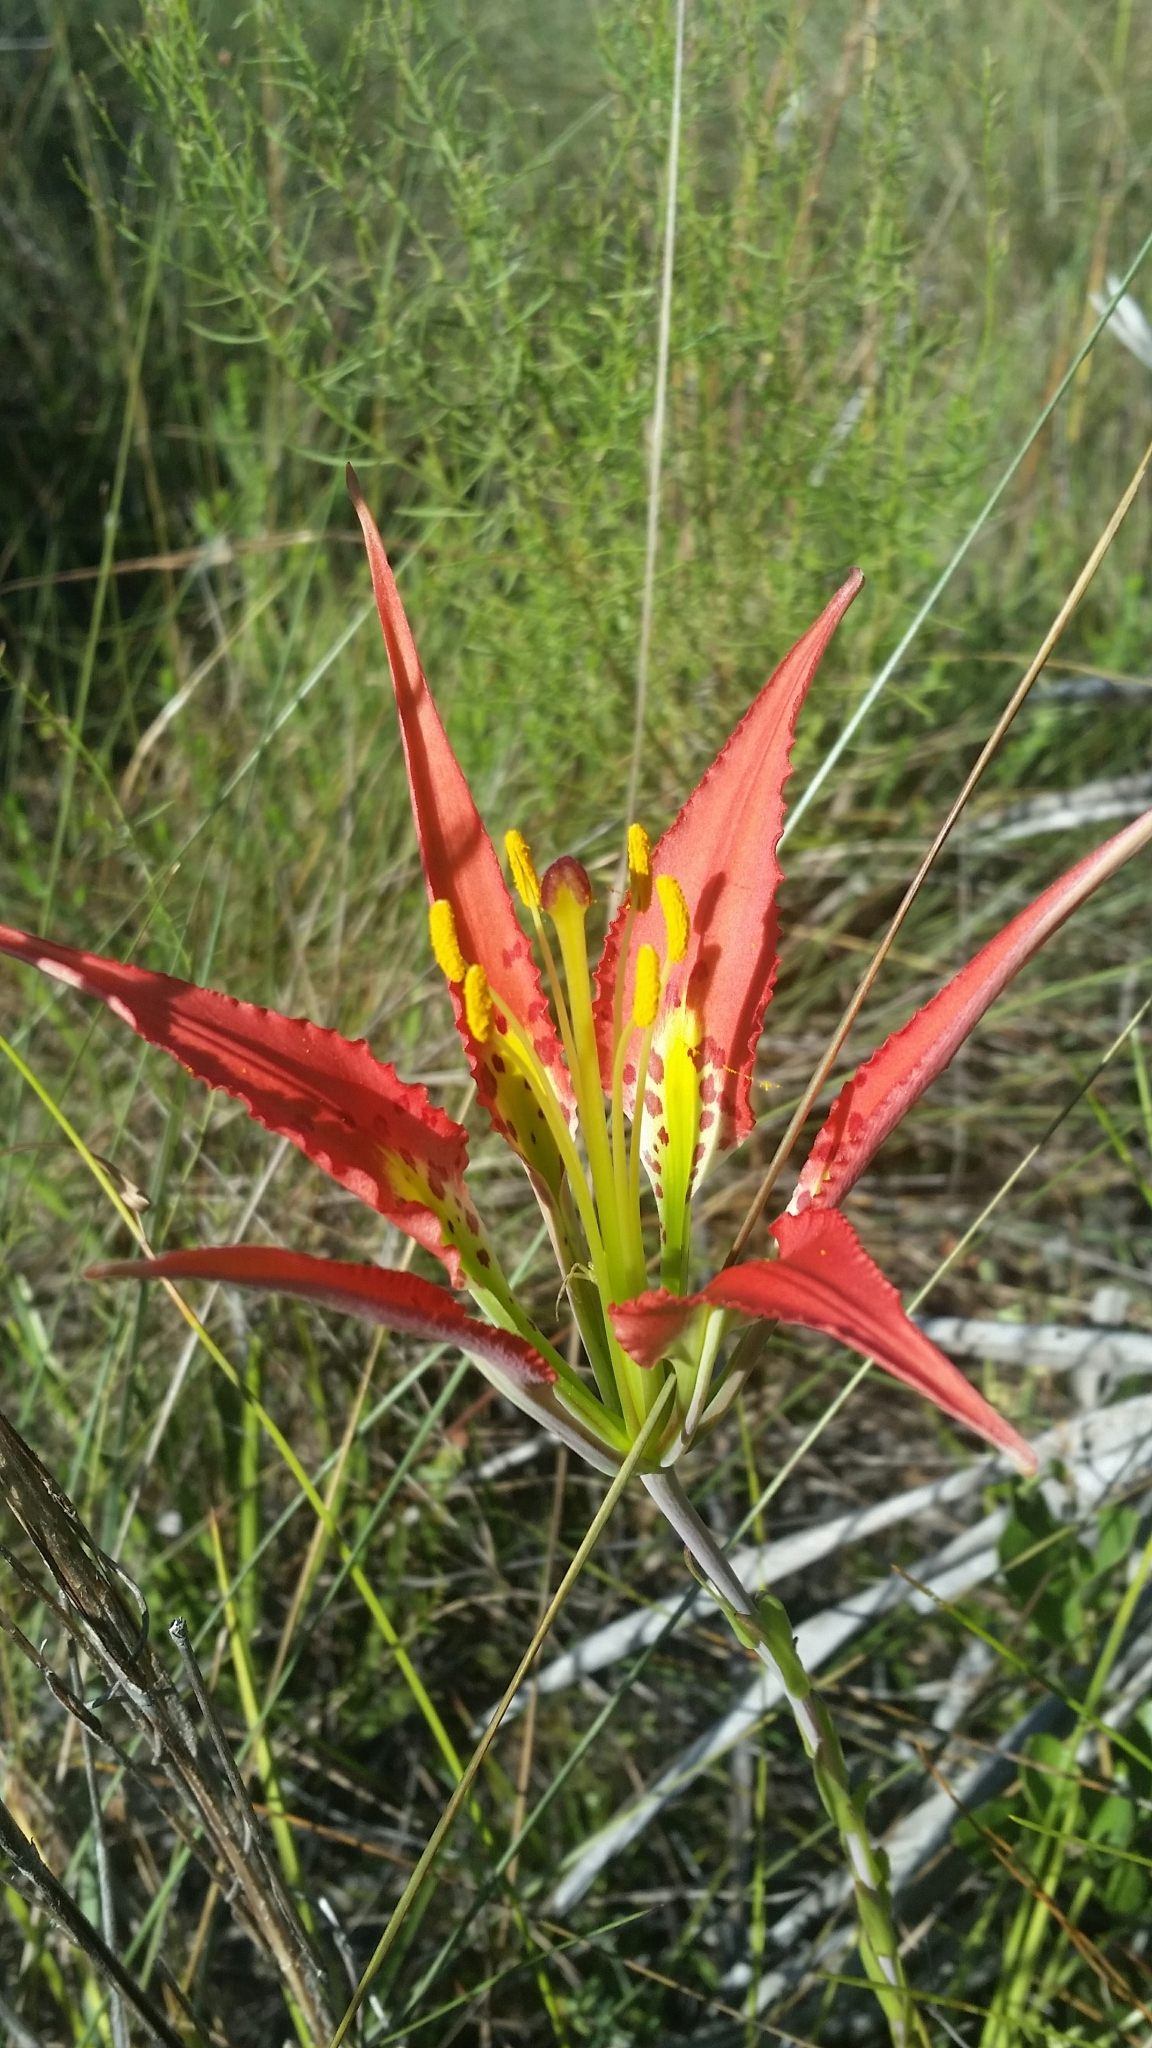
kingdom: Plantae
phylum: Tracheophyta
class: Liliopsida
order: Liliales
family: Liliaceae
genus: Lilium
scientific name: Lilium catesbaei
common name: Catesby's lily
